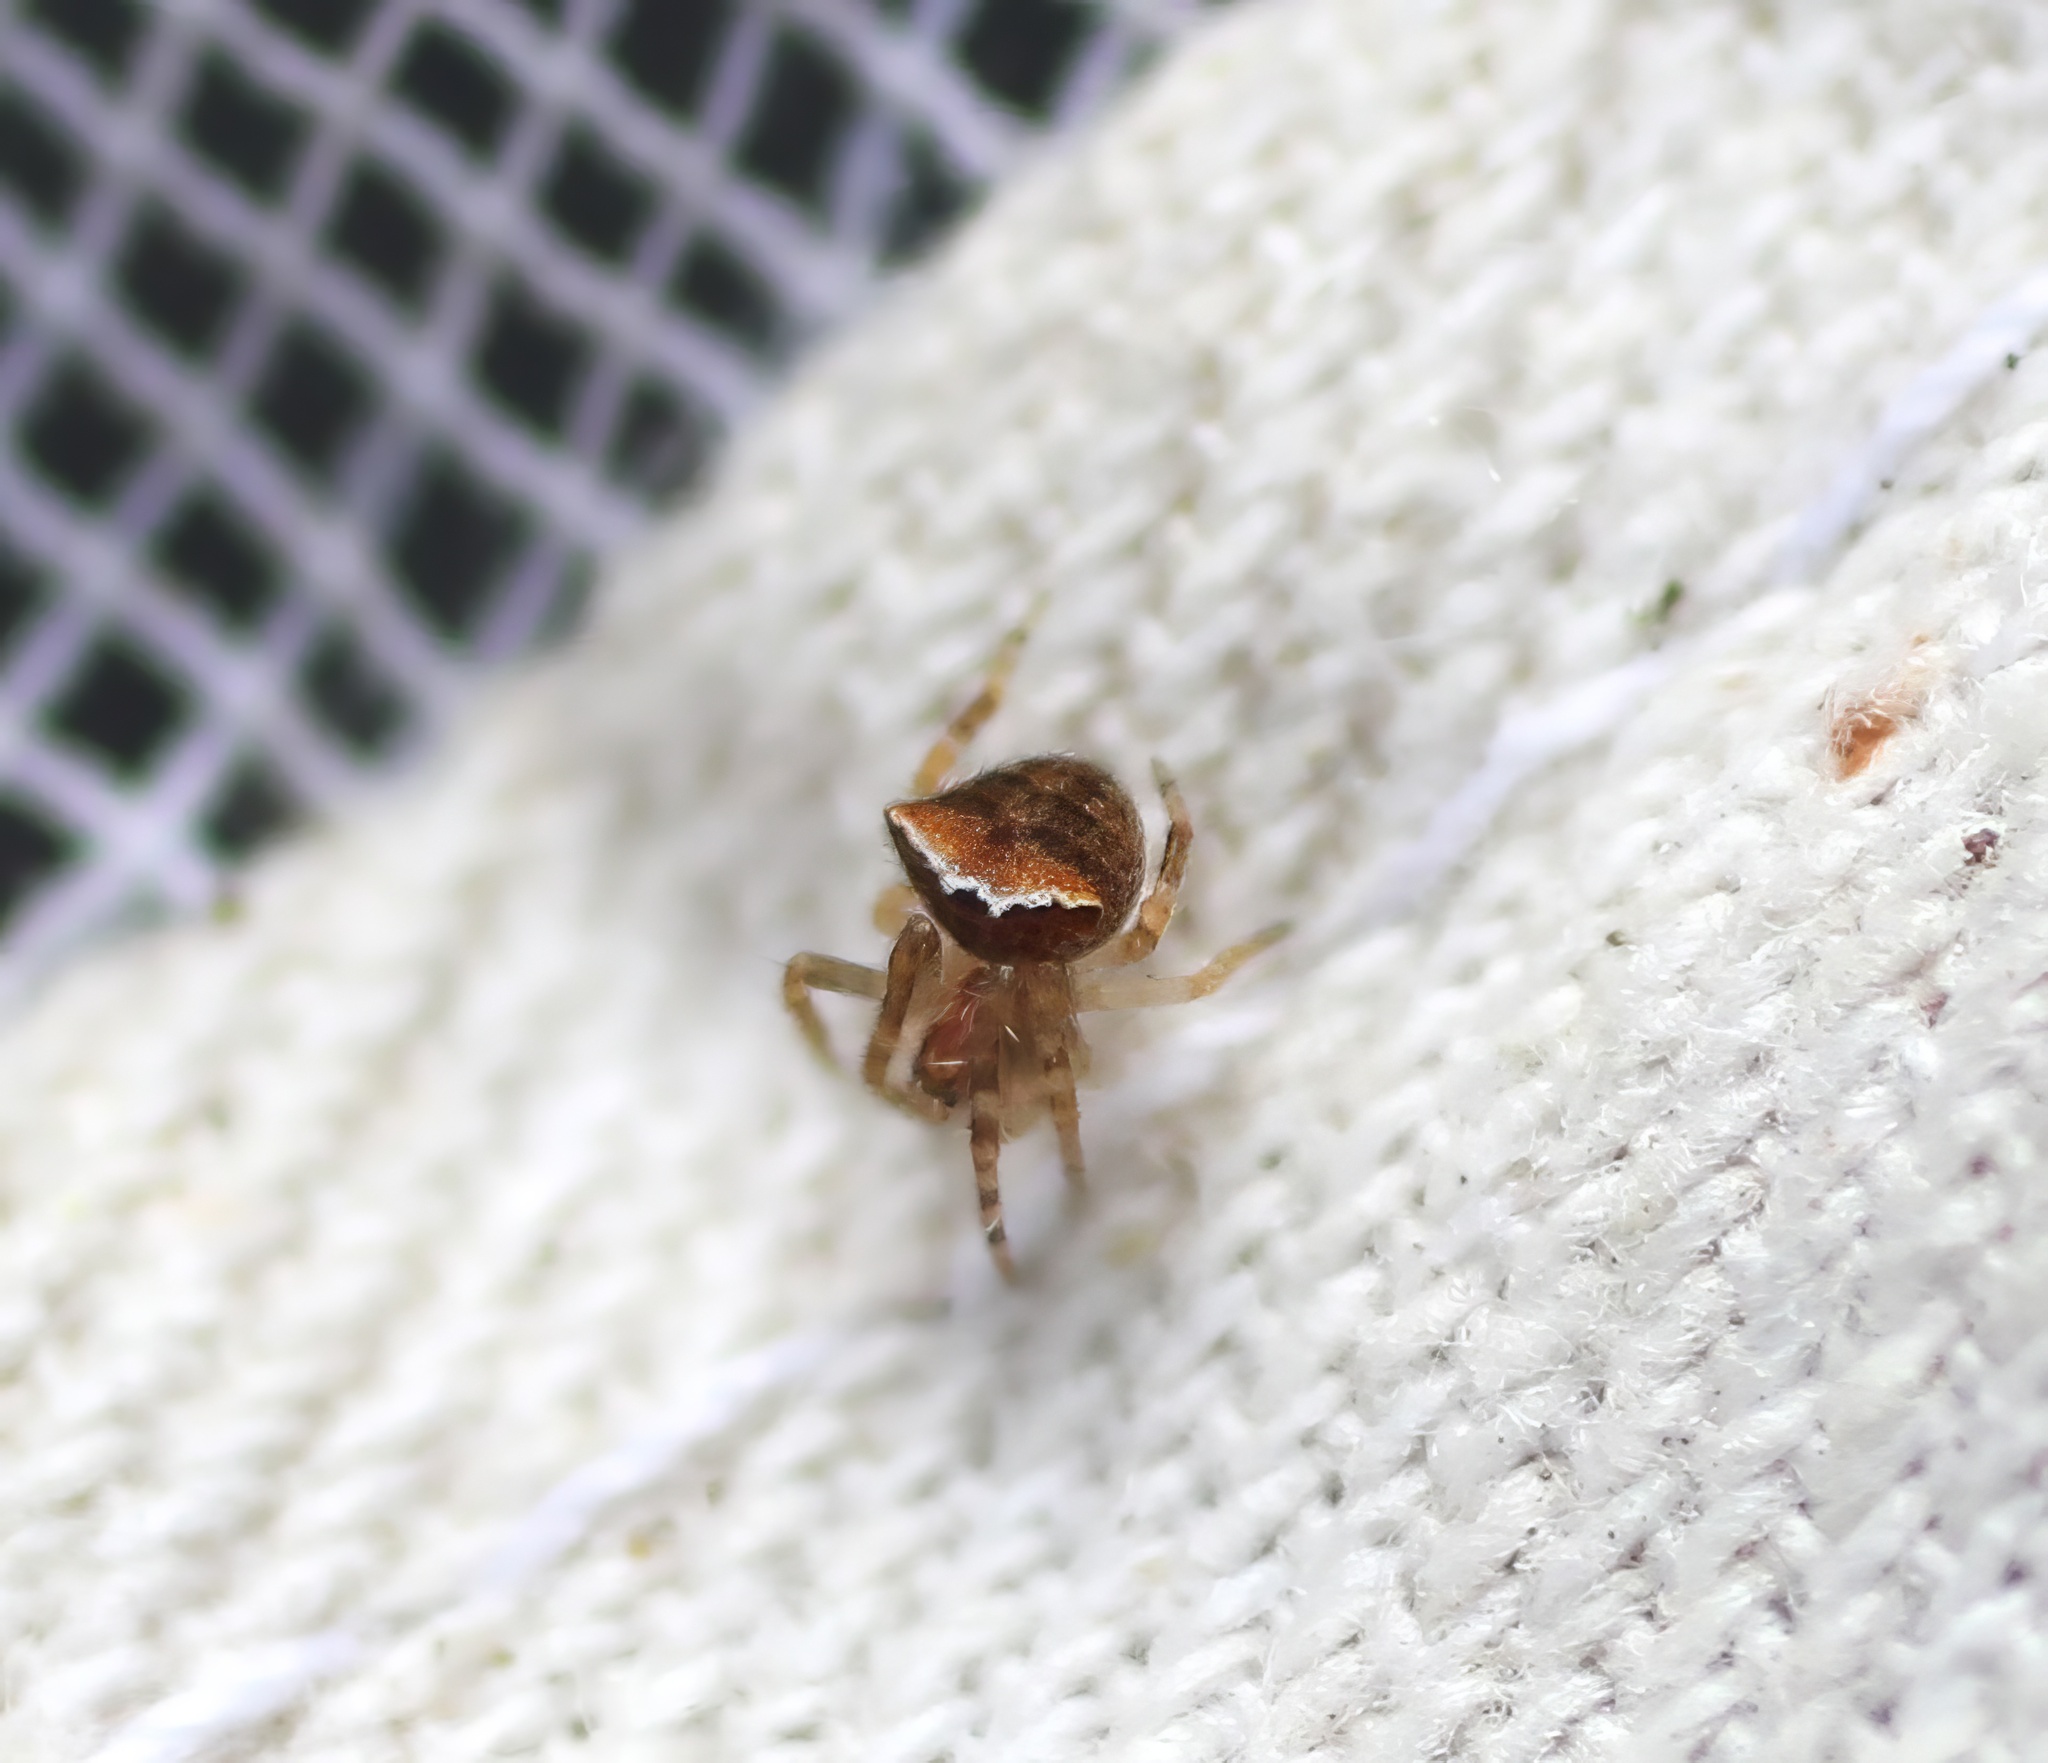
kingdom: Animalia
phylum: Arthropoda
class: Arachnida
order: Araneae
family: Araneidae
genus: Araneus
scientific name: Araneus montereyensis
